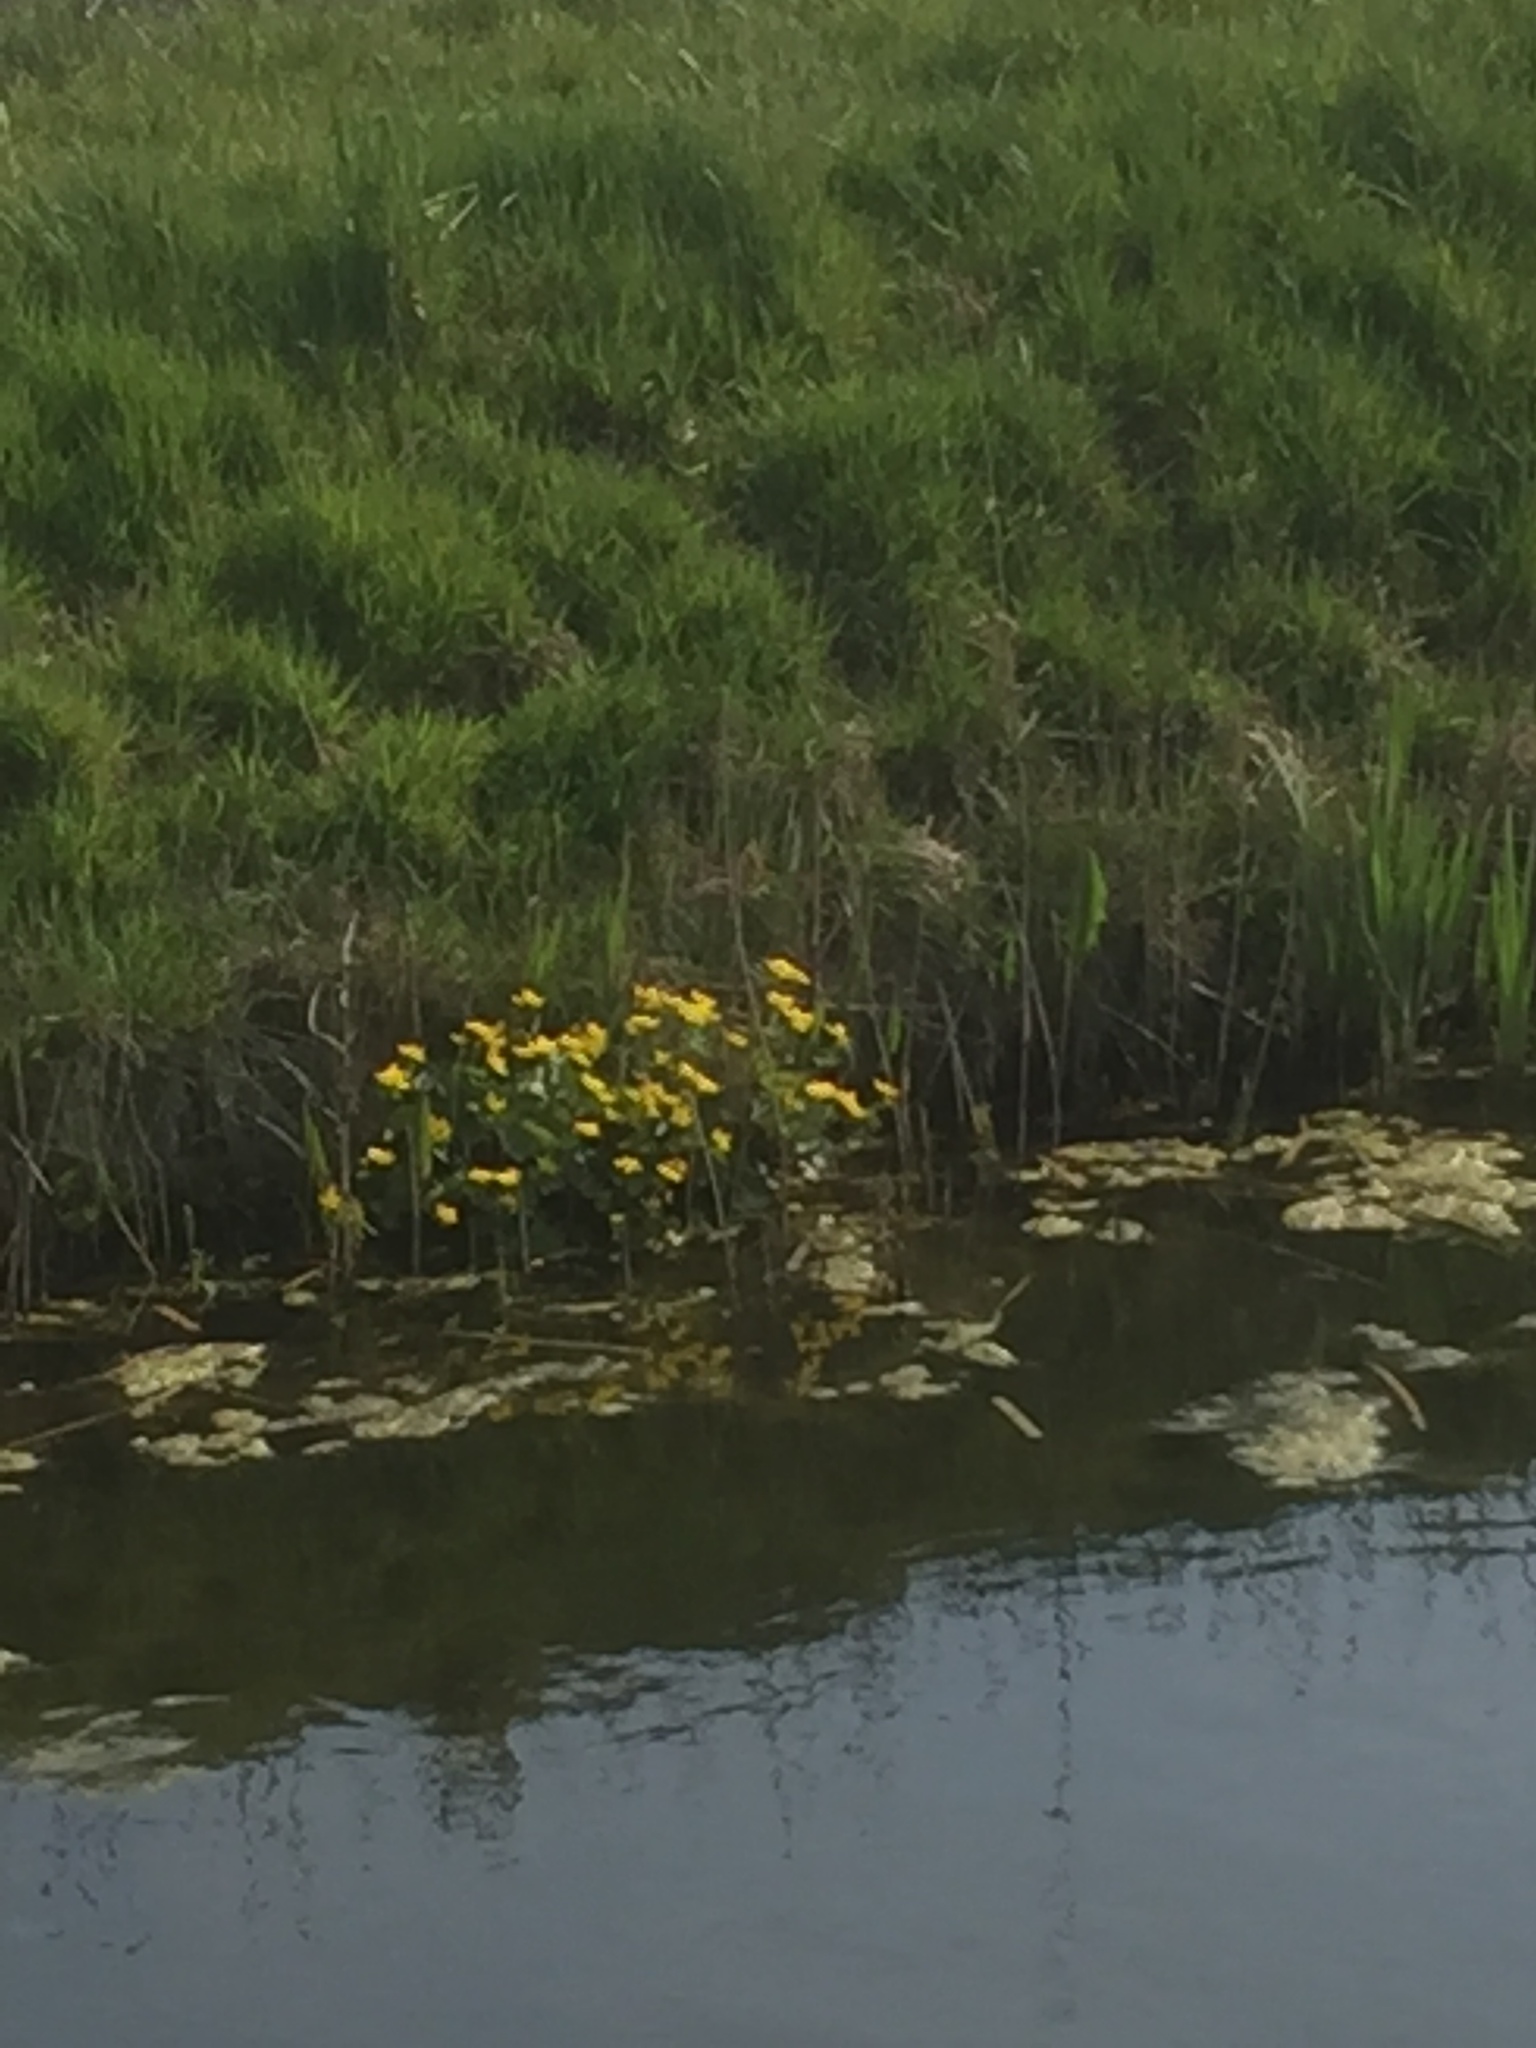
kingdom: Plantae
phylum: Tracheophyta
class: Magnoliopsida
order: Ranunculales
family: Ranunculaceae
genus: Caltha
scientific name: Caltha palustris
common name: Marsh marigold
